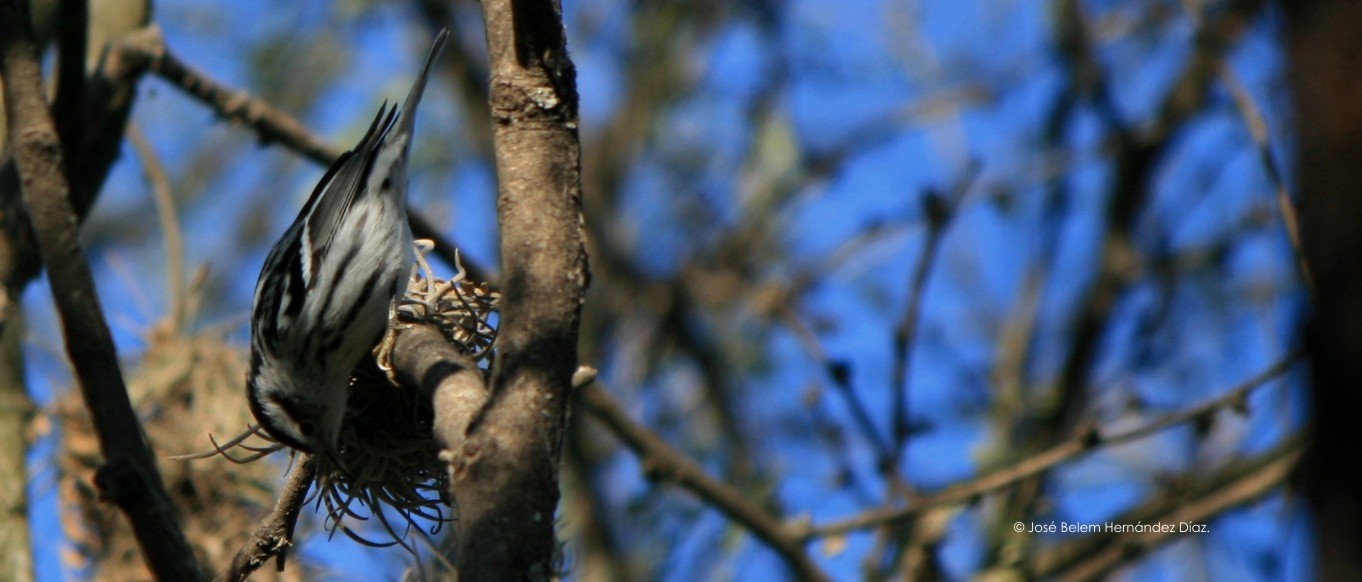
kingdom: Animalia
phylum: Chordata
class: Aves
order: Passeriformes
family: Parulidae
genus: Mniotilta
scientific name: Mniotilta varia
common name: Black-and-white warbler
